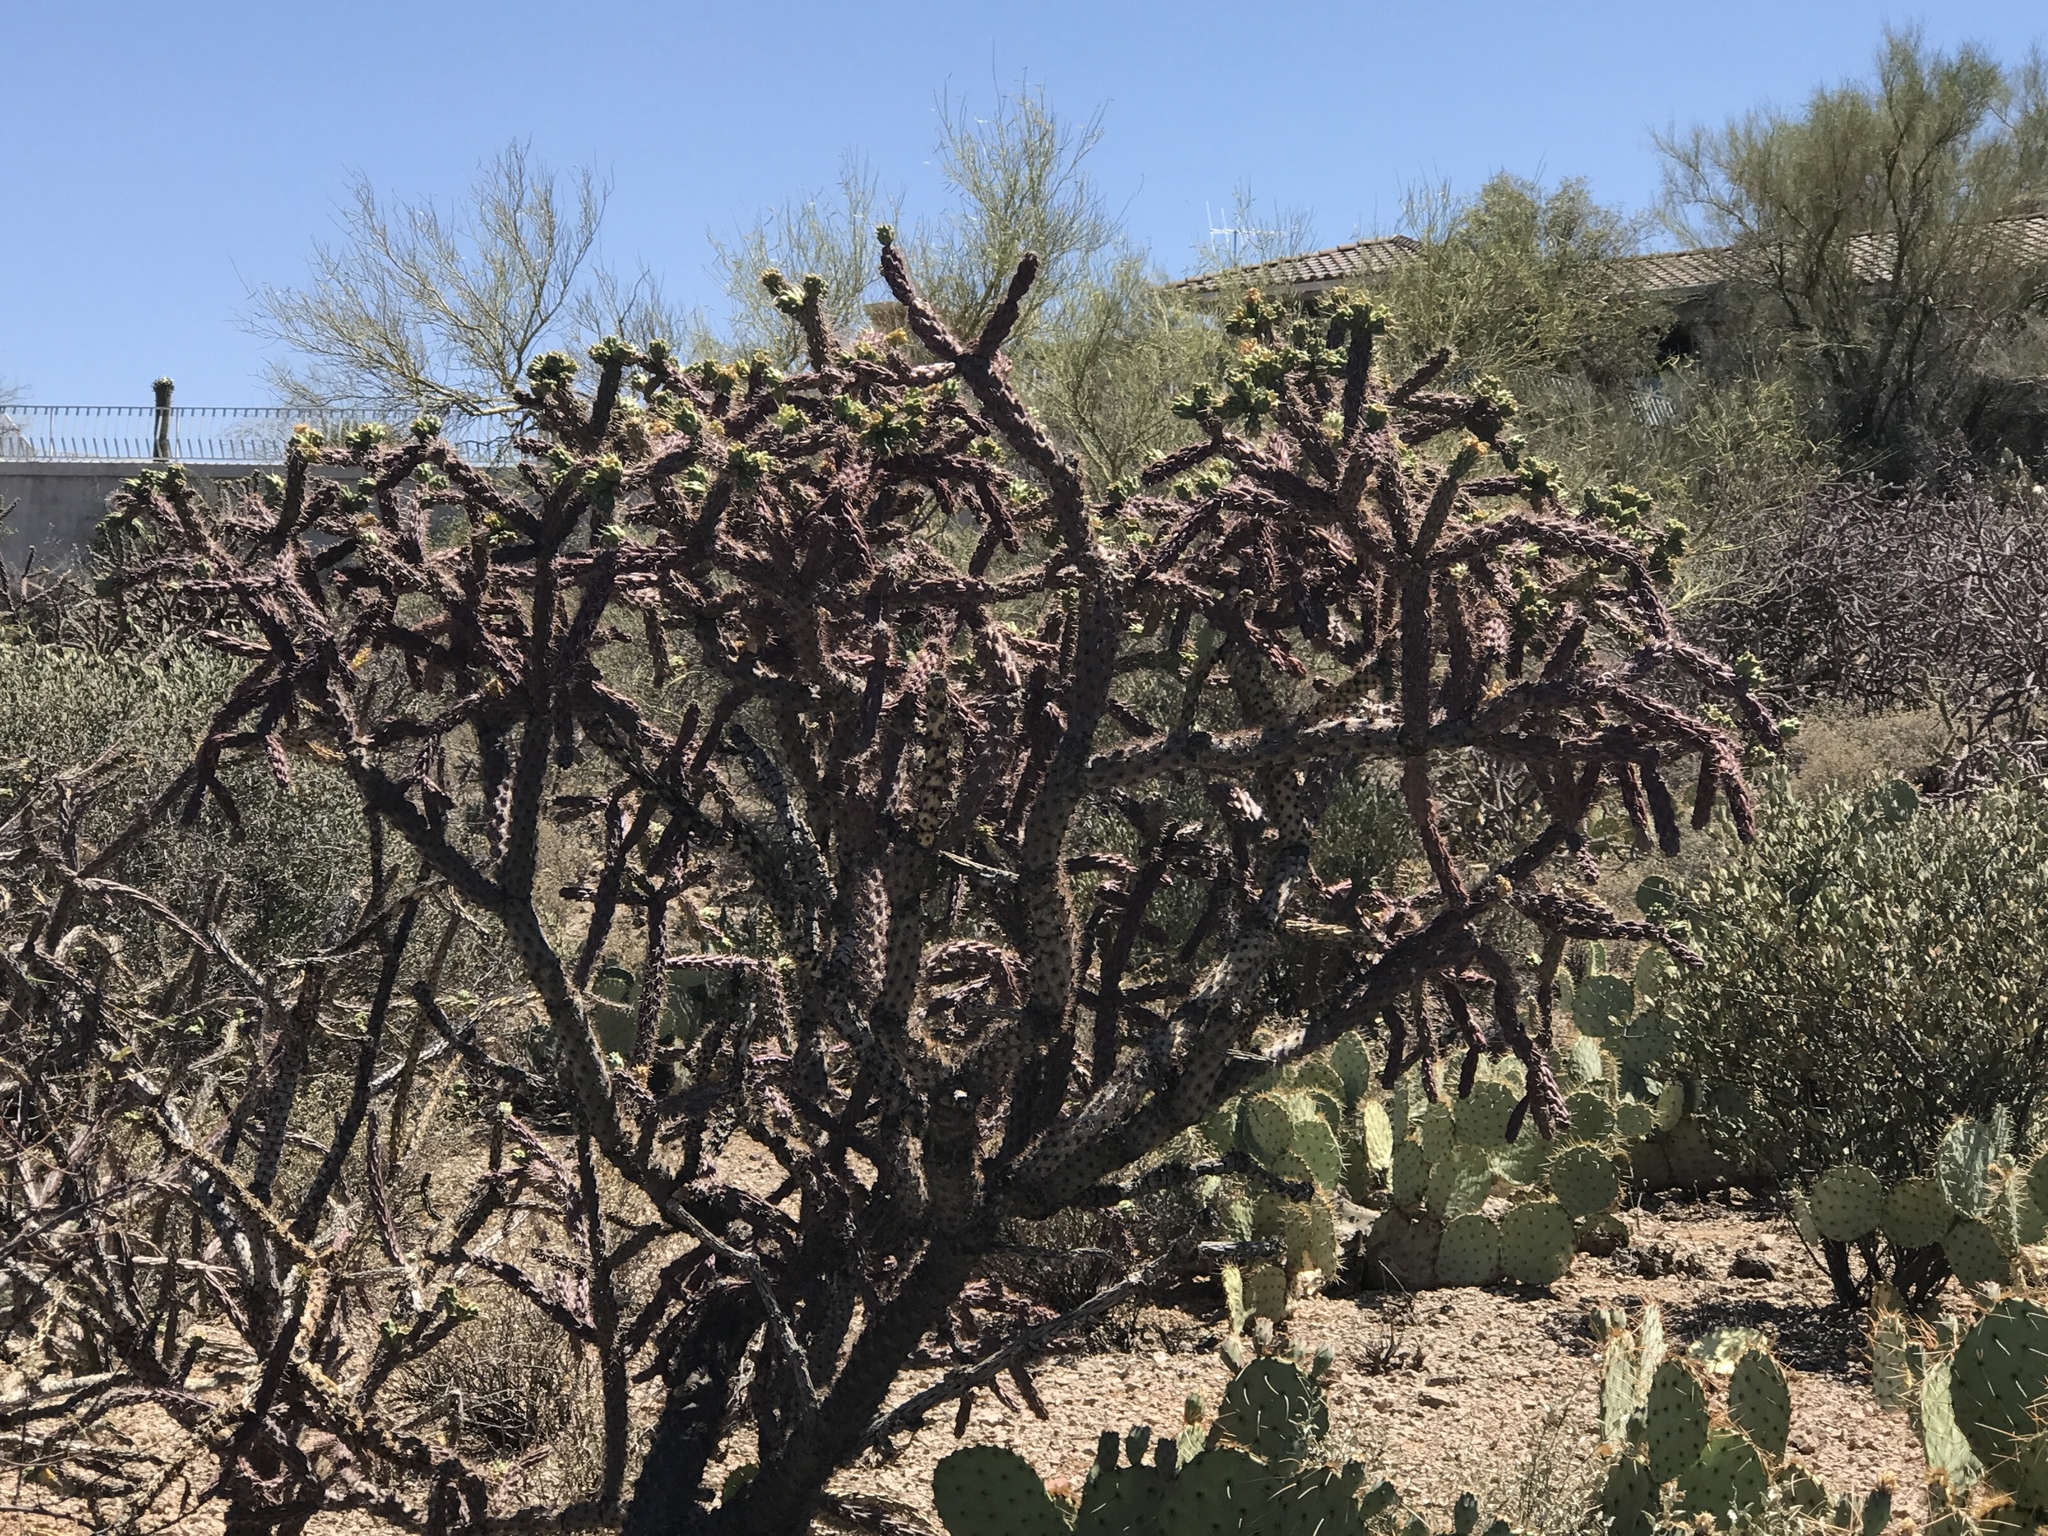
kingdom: Plantae
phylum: Tracheophyta
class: Magnoliopsida
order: Caryophyllales
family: Cactaceae
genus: Cylindropuntia
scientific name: Cylindropuntia thurberi
